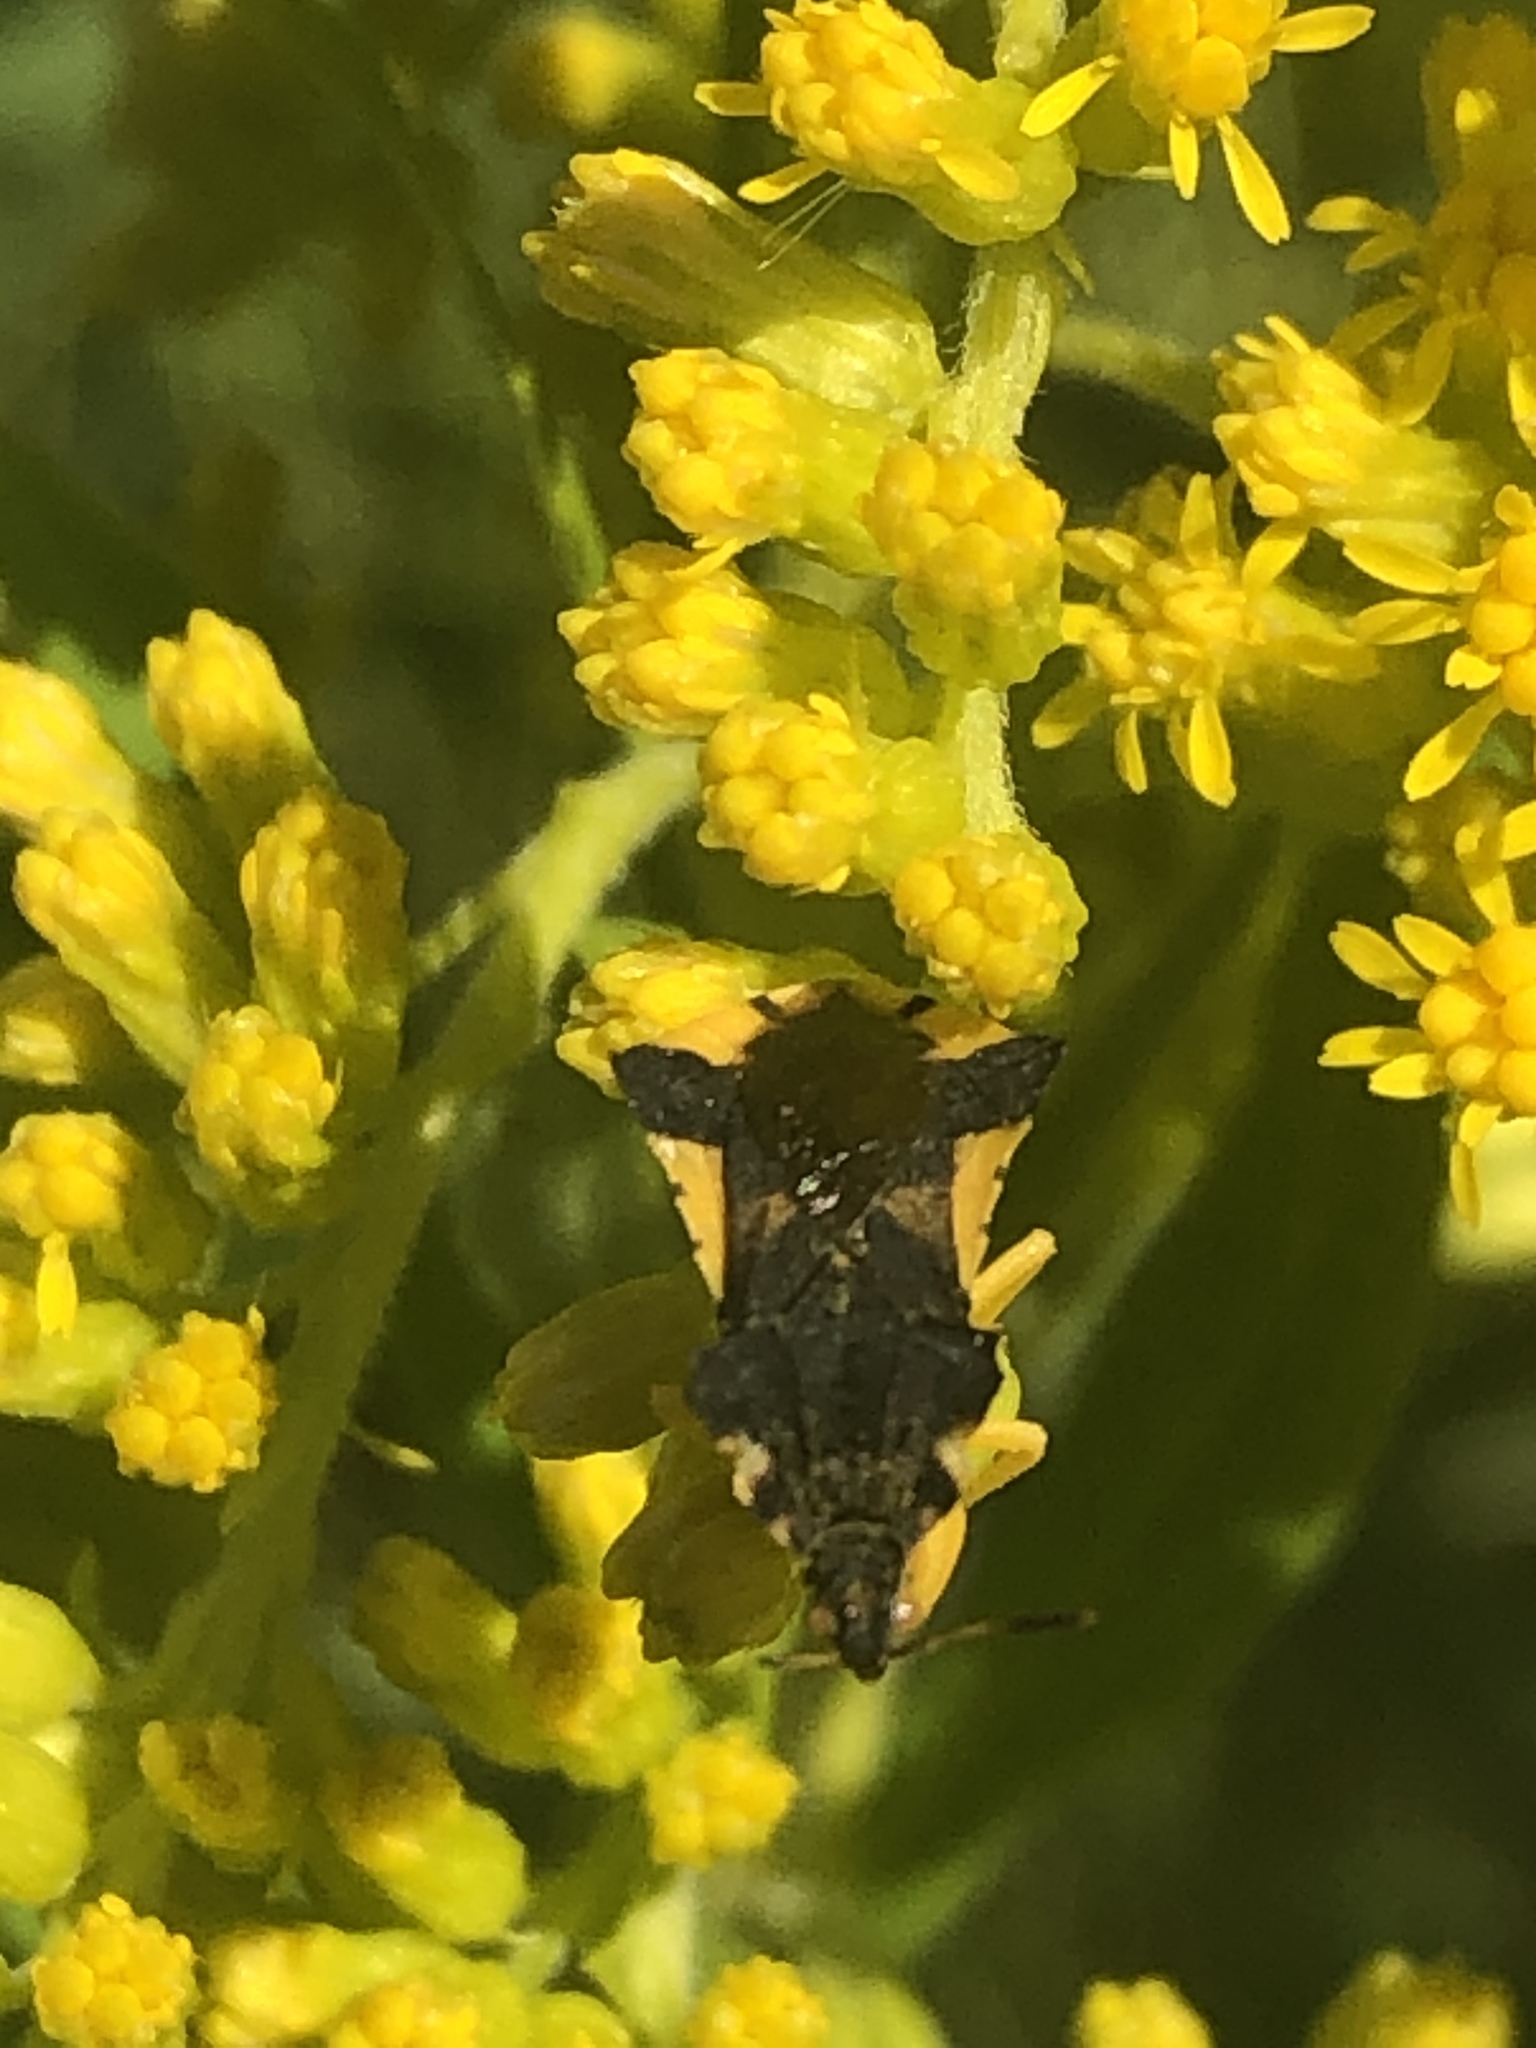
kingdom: Animalia
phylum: Arthropoda
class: Insecta
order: Hemiptera
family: Reduviidae
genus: Phymata
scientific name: Phymata pennsylvanica
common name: Pennsylvania ambush bug
